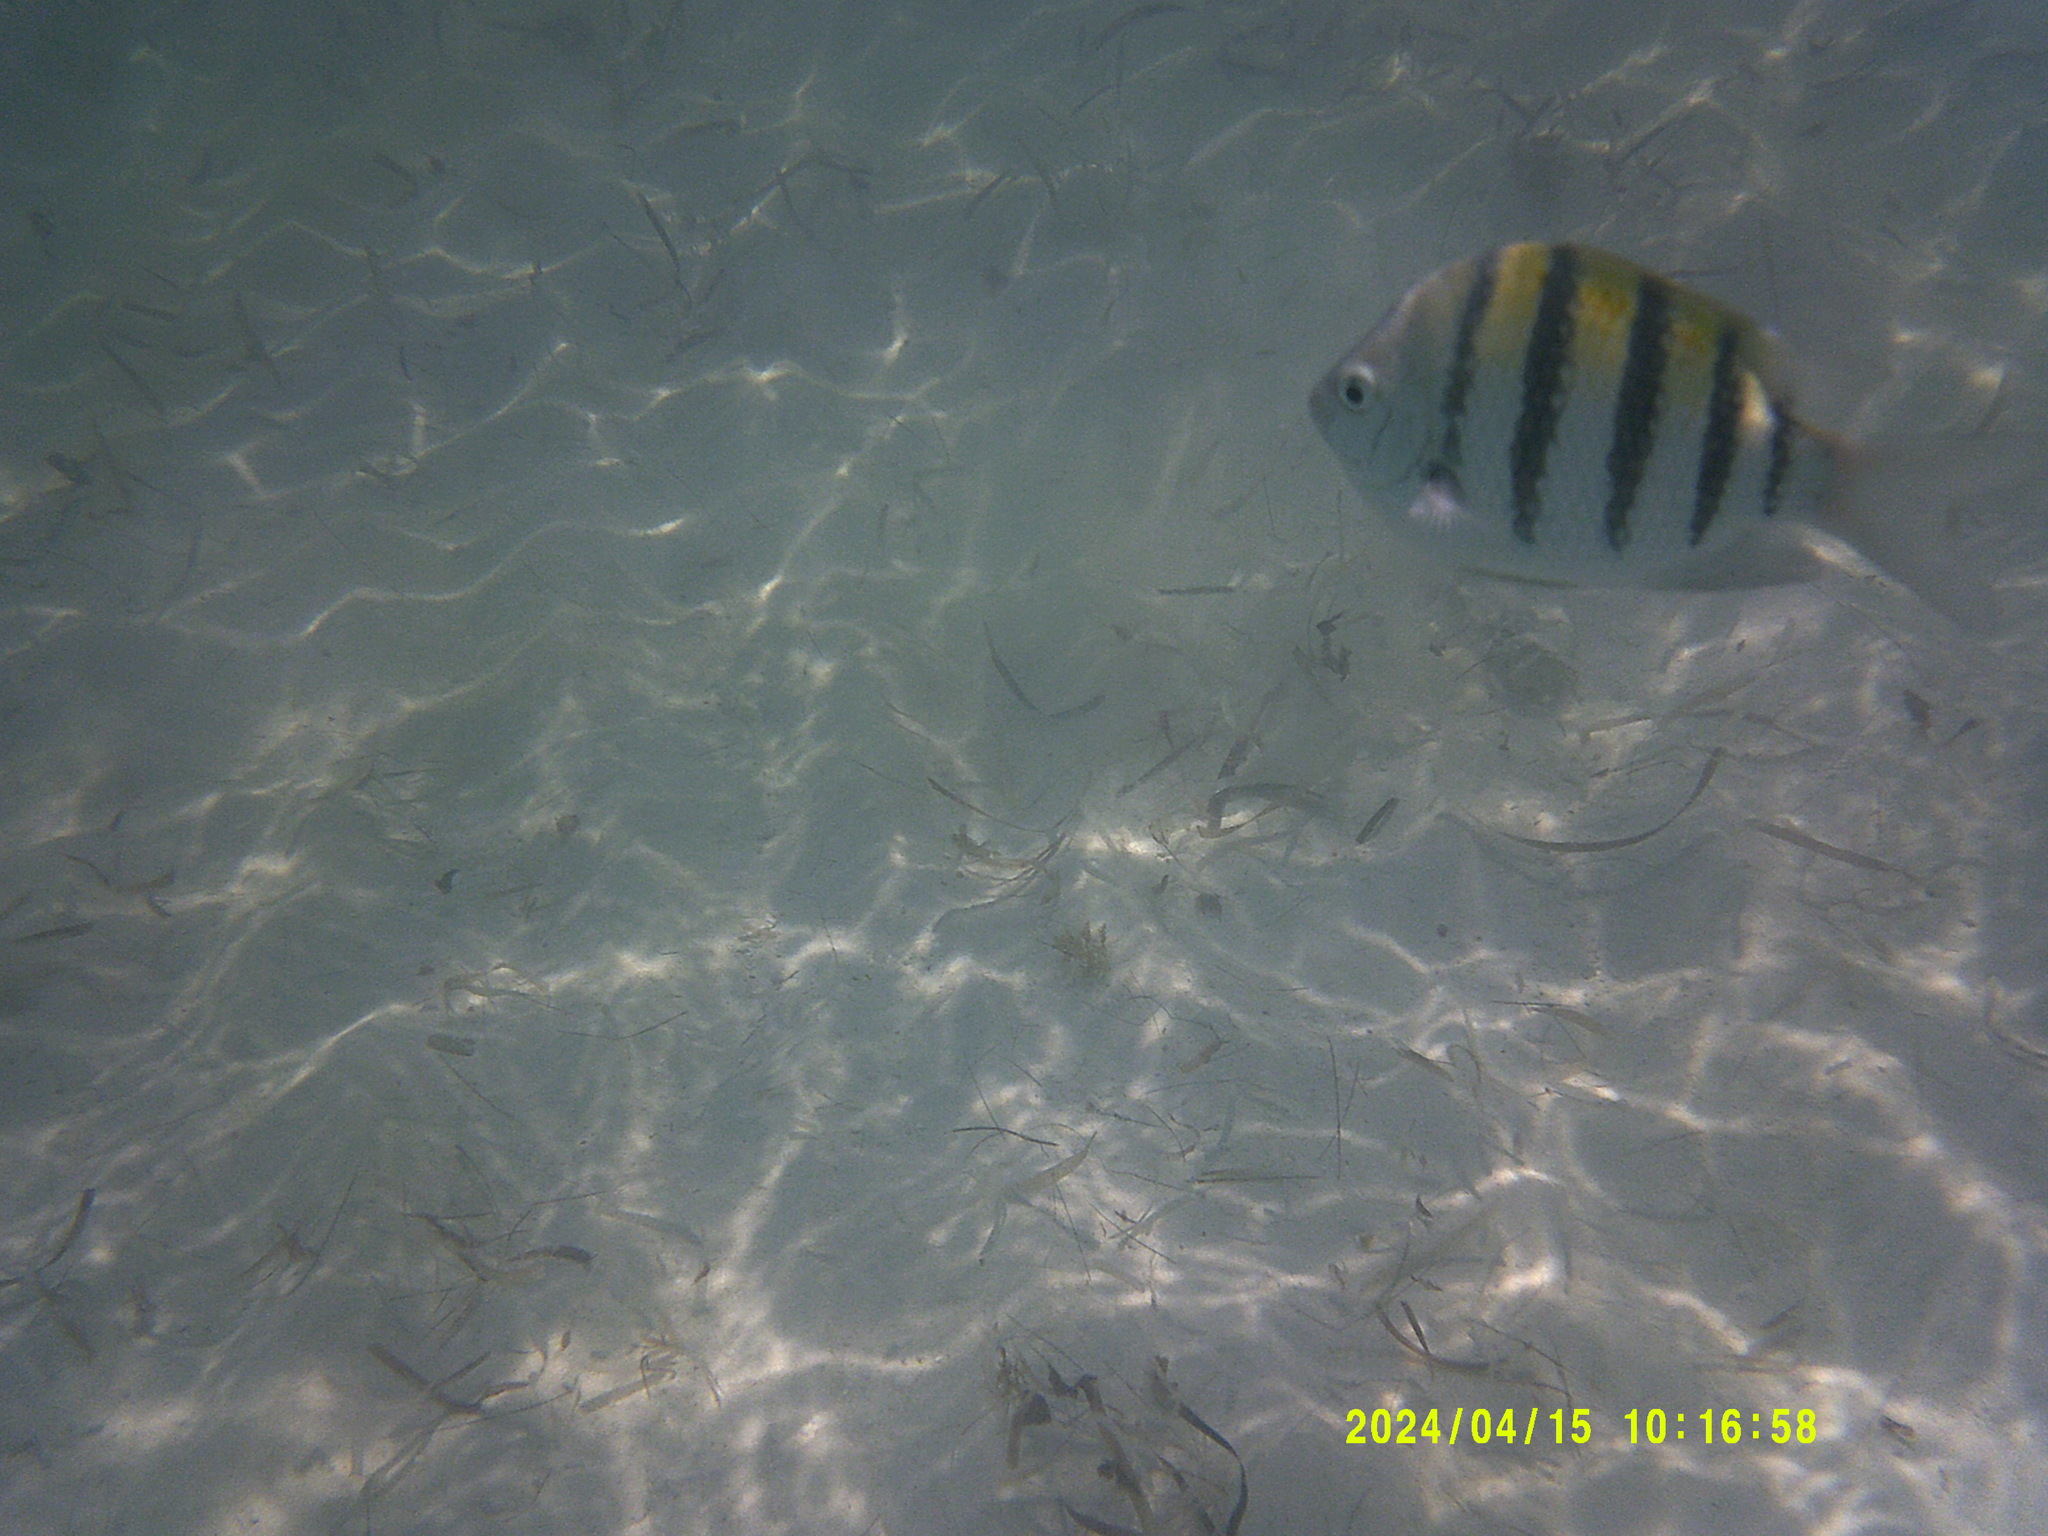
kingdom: Animalia
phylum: Chordata
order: Perciformes
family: Pomacentridae
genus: Abudefduf
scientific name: Abudefduf saxatilis
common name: Sergeant major
